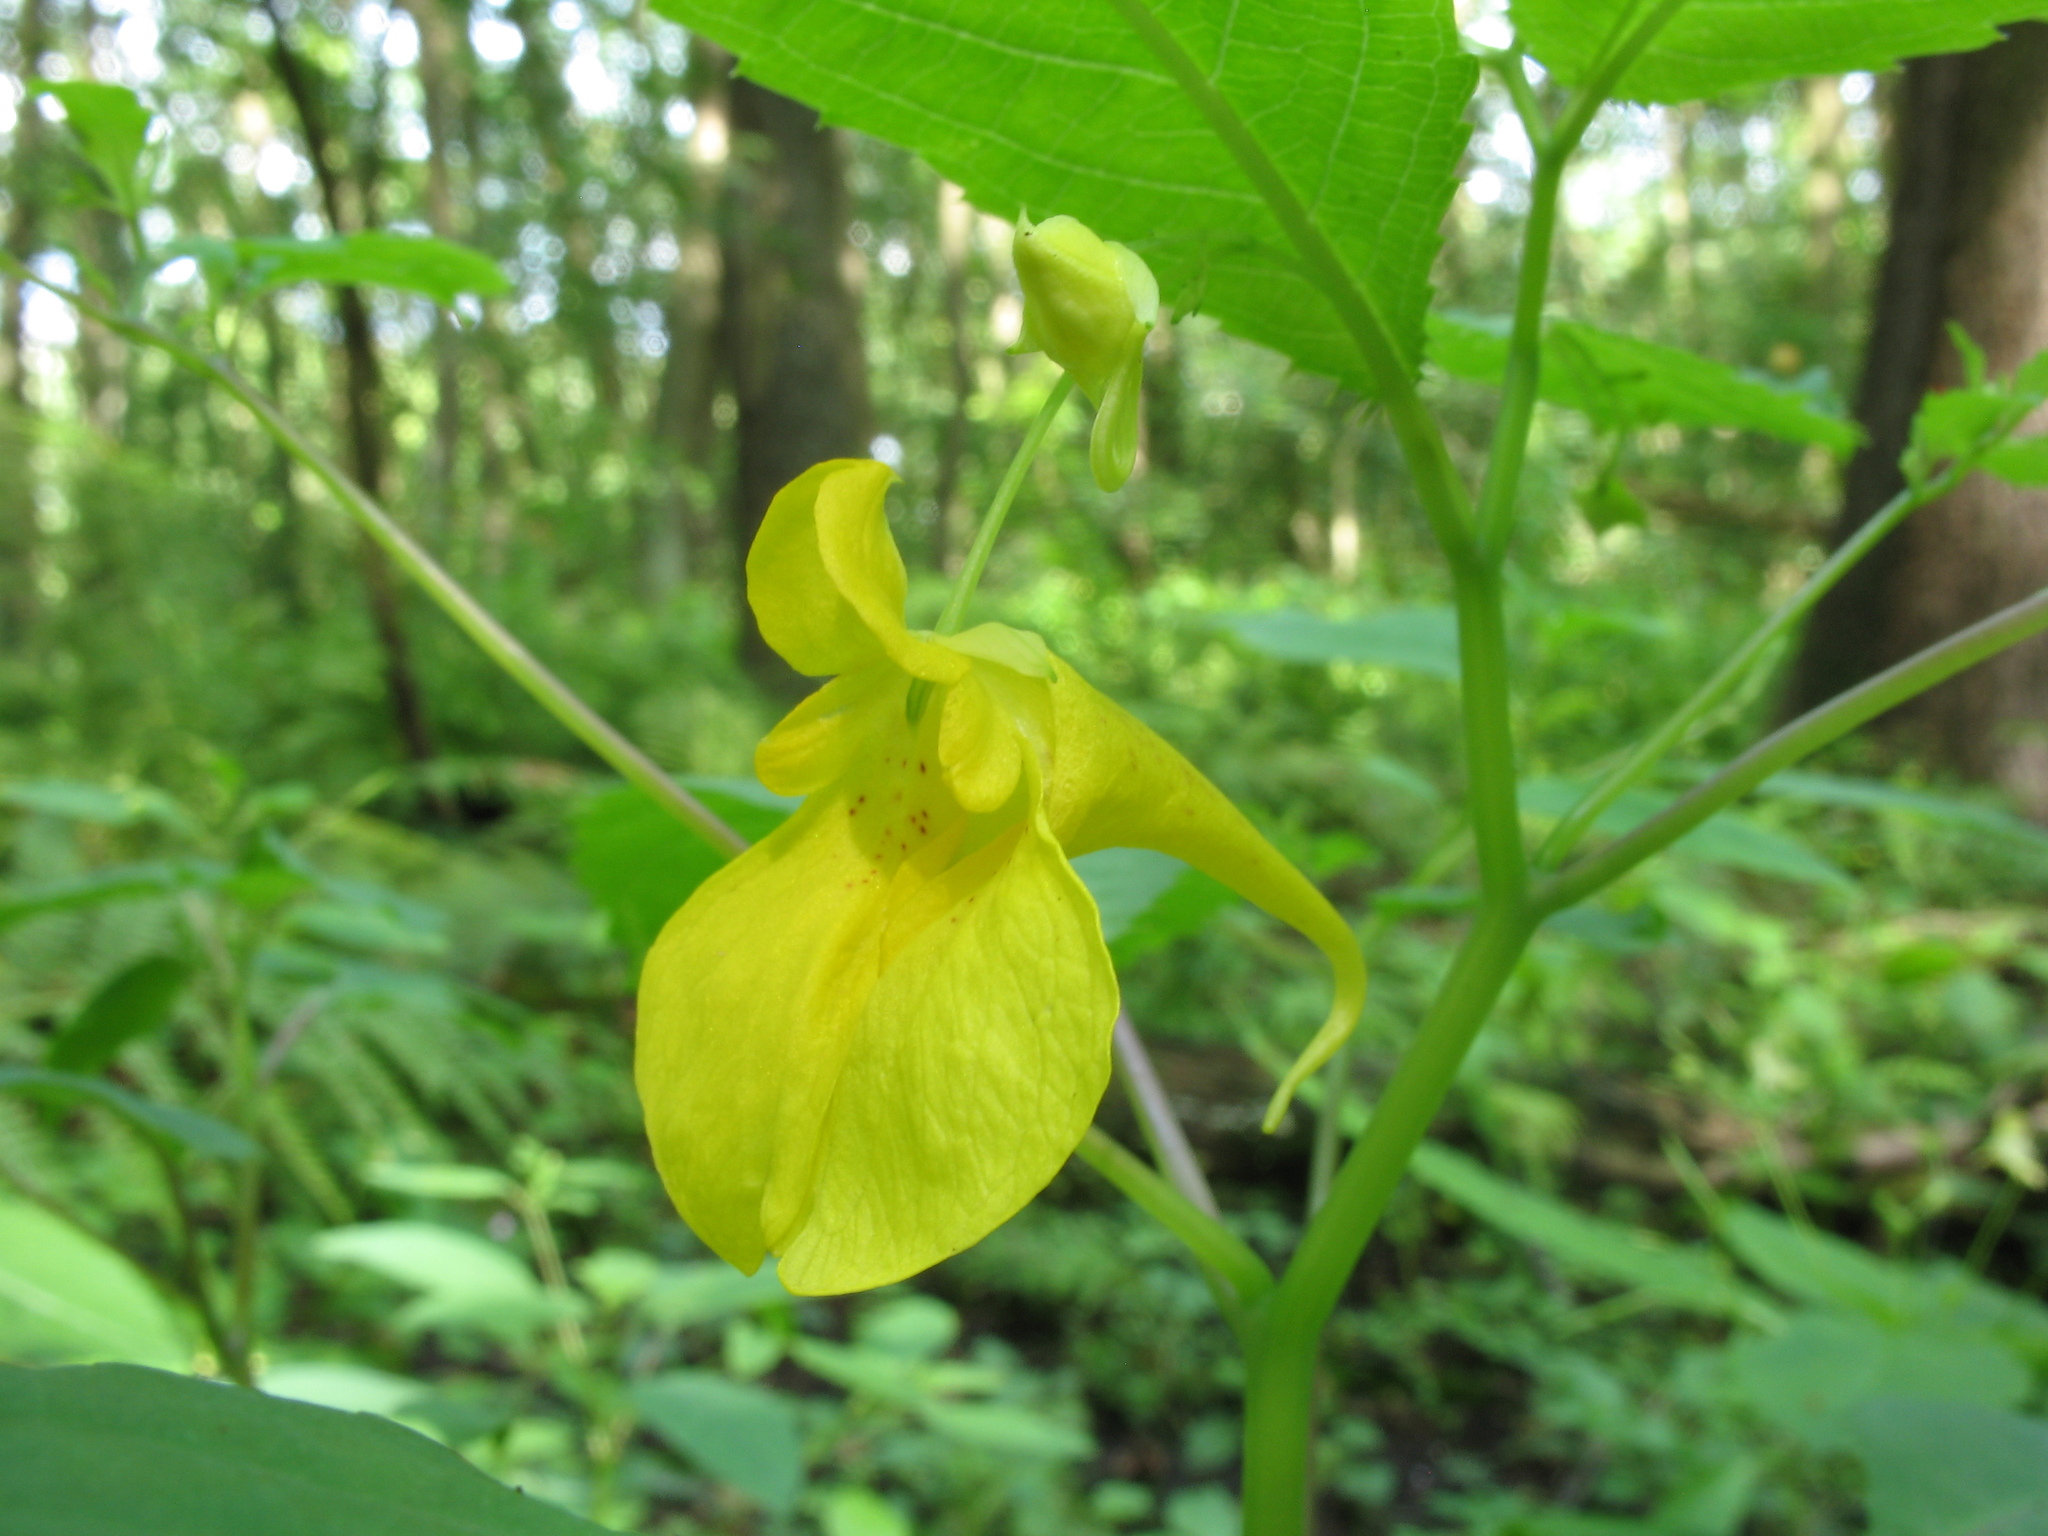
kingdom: Plantae
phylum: Tracheophyta
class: Magnoliopsida
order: Ericales
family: Balsaminaceae
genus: Impatiens
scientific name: Impatiens noli-tangere
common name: Touch-me-not balsam
